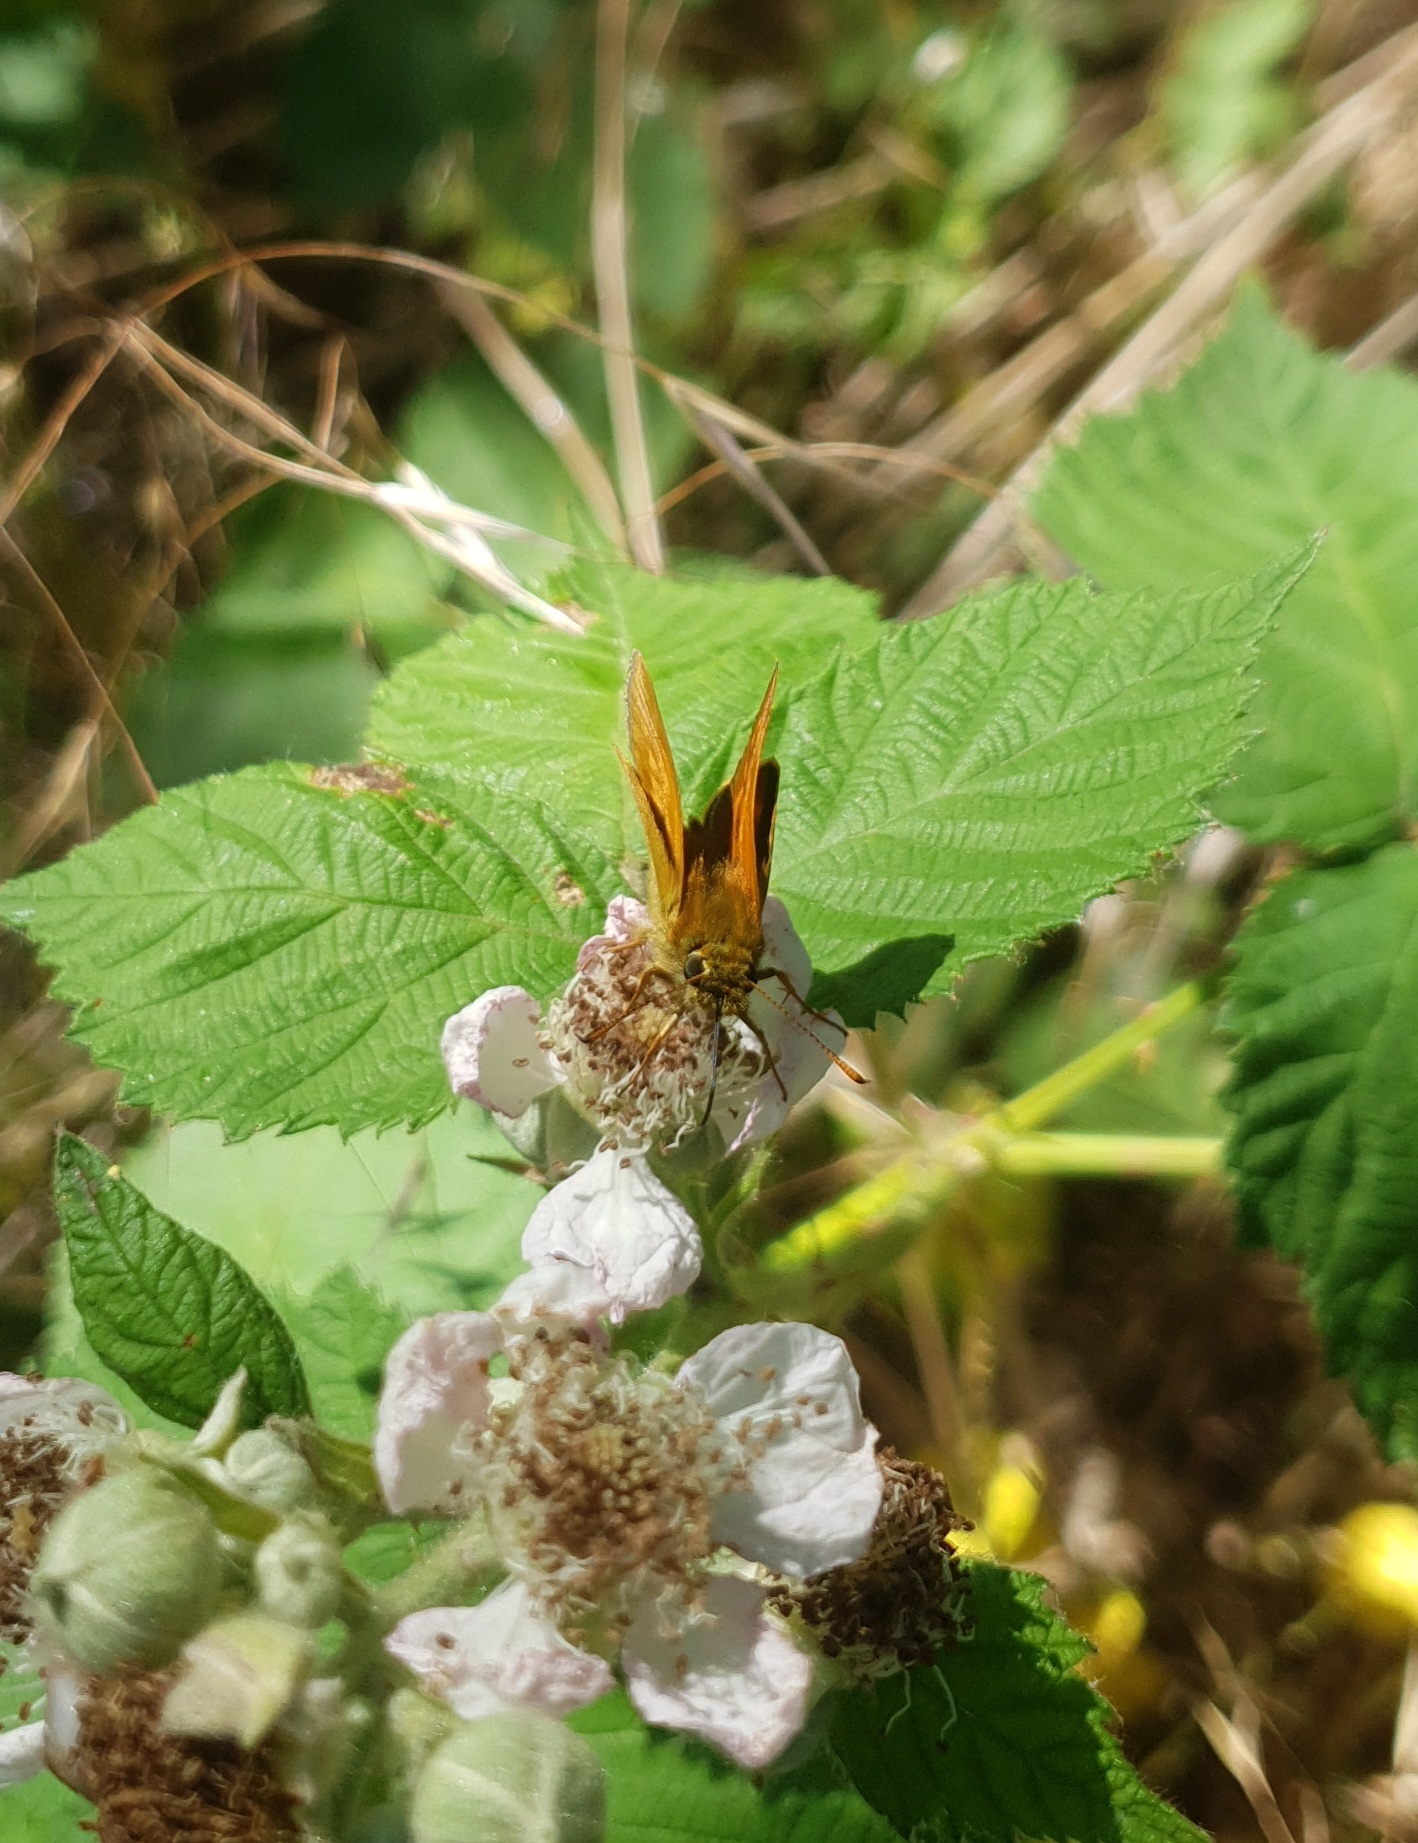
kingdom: Animalia
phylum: Arthropoda
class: Insecta
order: Lepidoptera
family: Hesperiidae
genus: Ochlodes
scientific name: Ochlodes venata
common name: Large skipper
